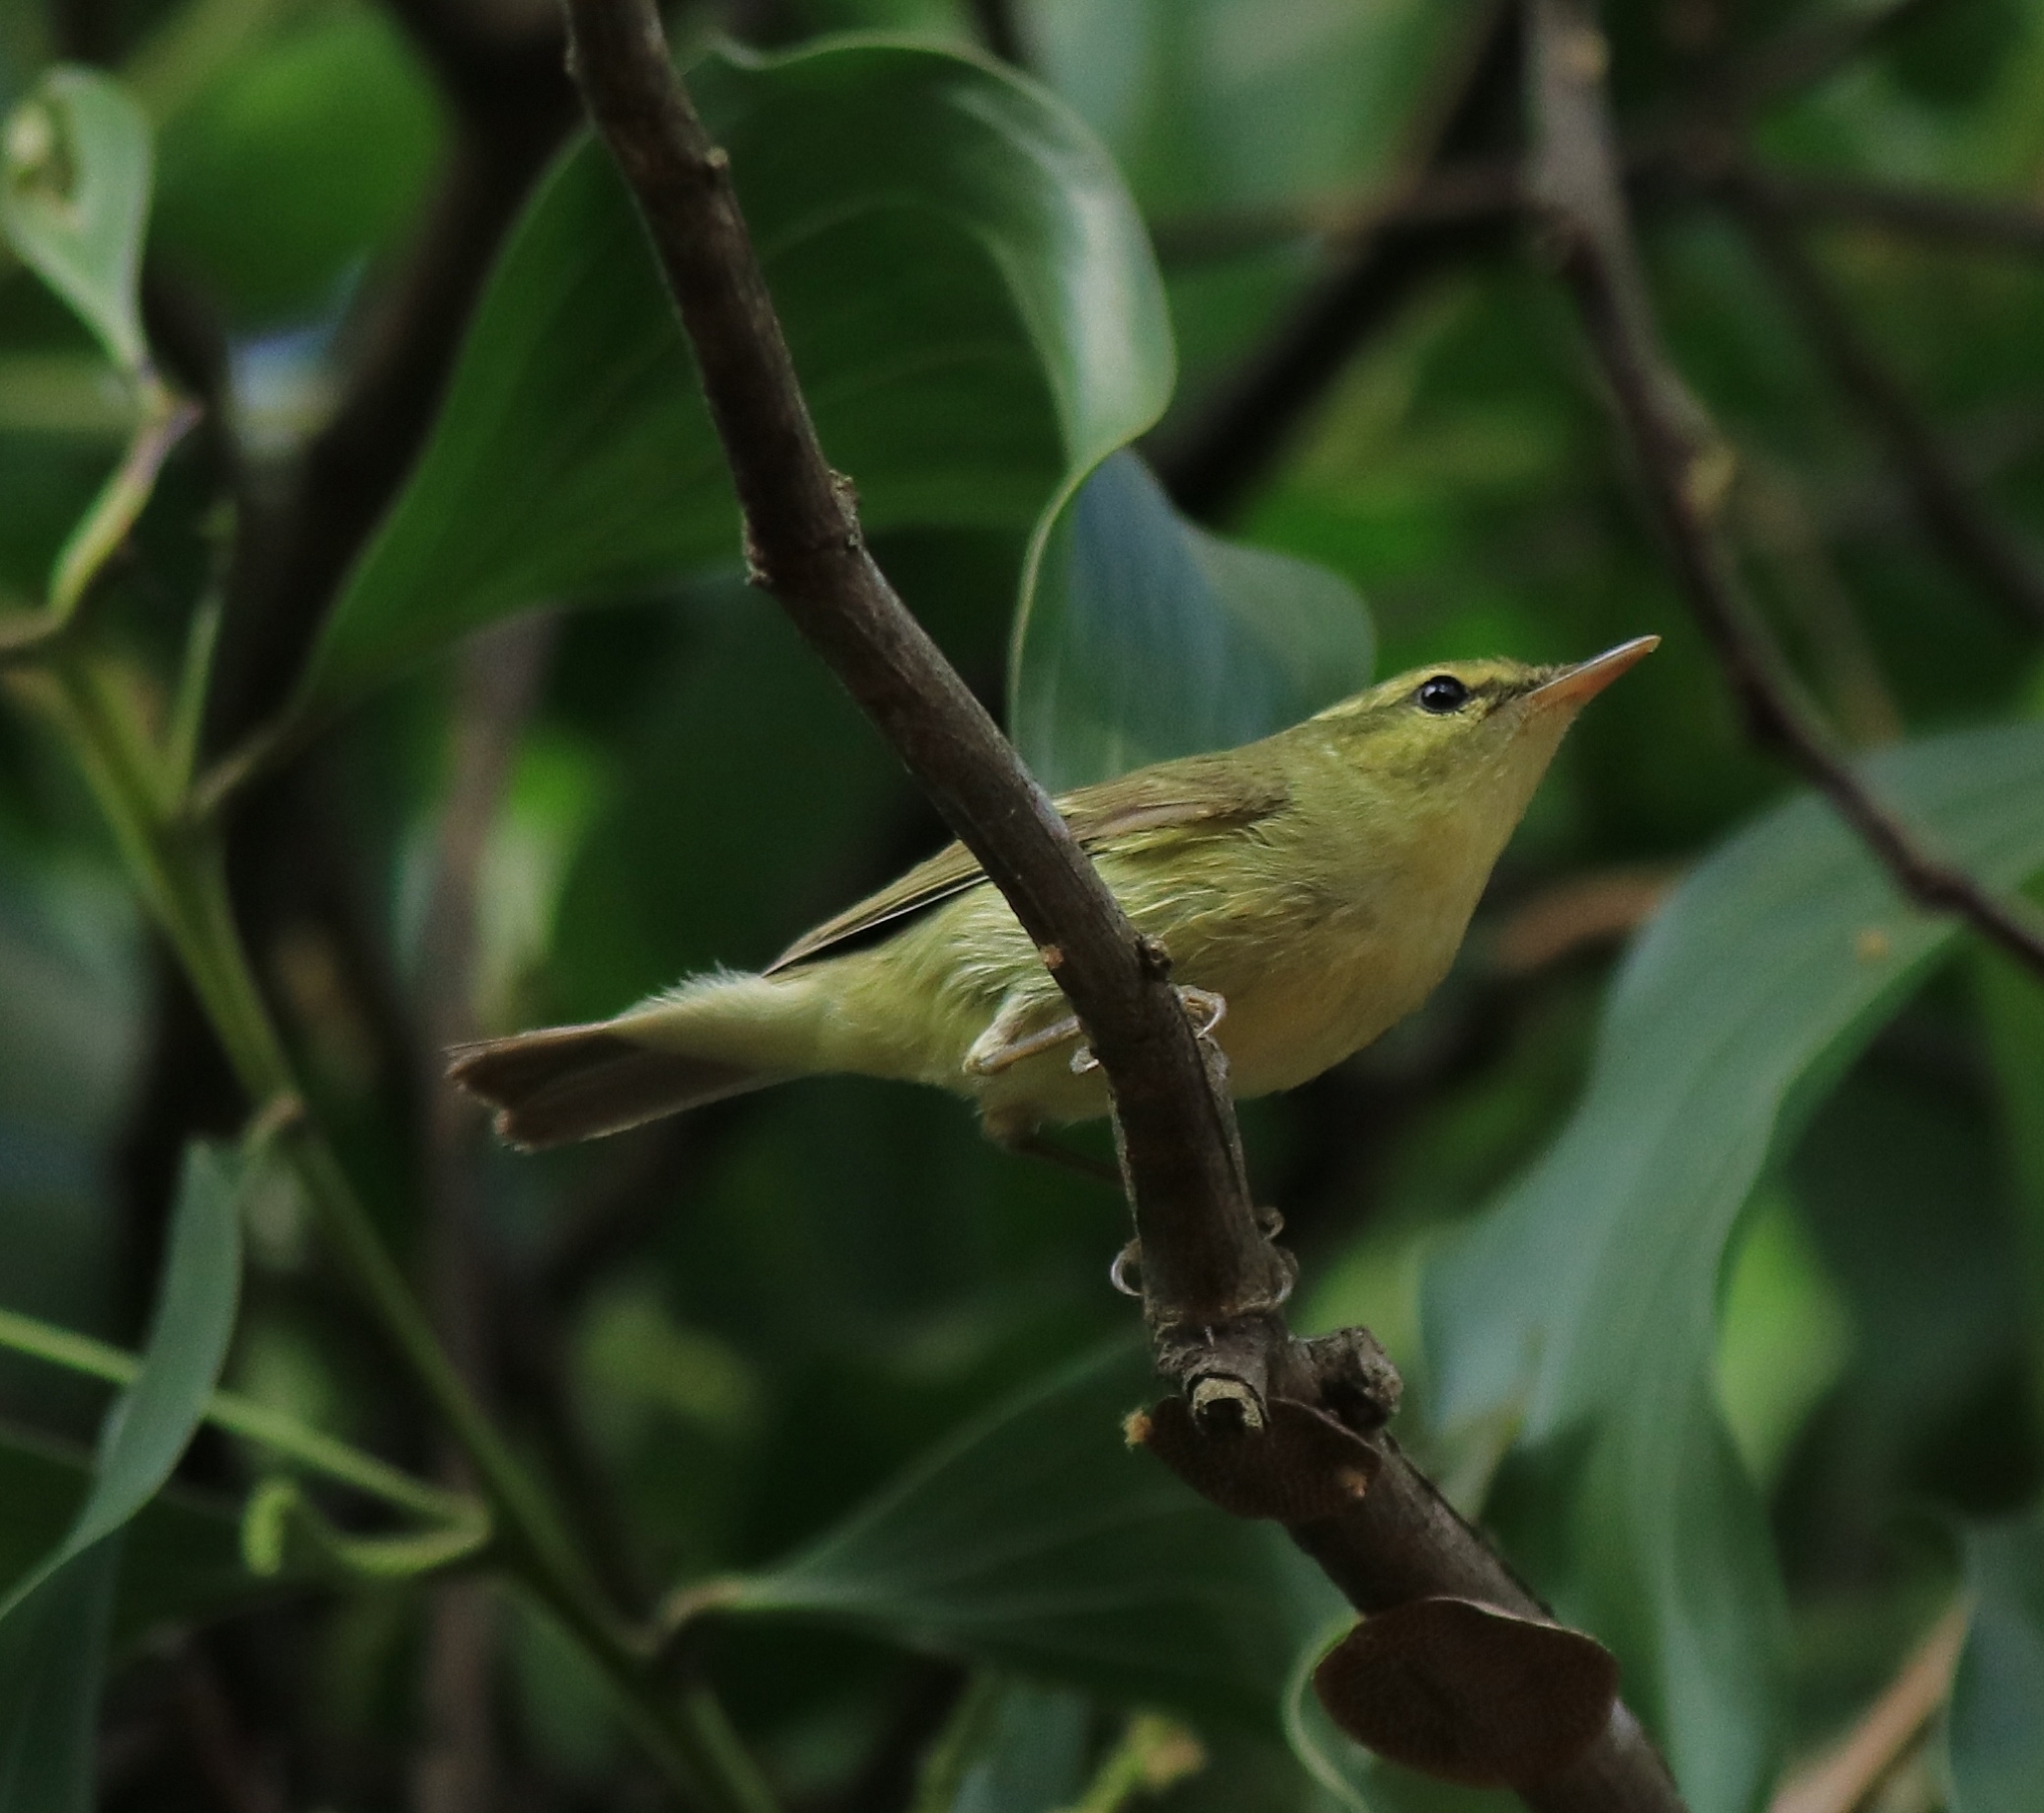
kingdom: Animalia
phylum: Chordata
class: Aves
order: Passeriformes
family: Phylloscopidae
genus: Phylloscopus
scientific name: Phylloscopus nitidus
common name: Green warbler
